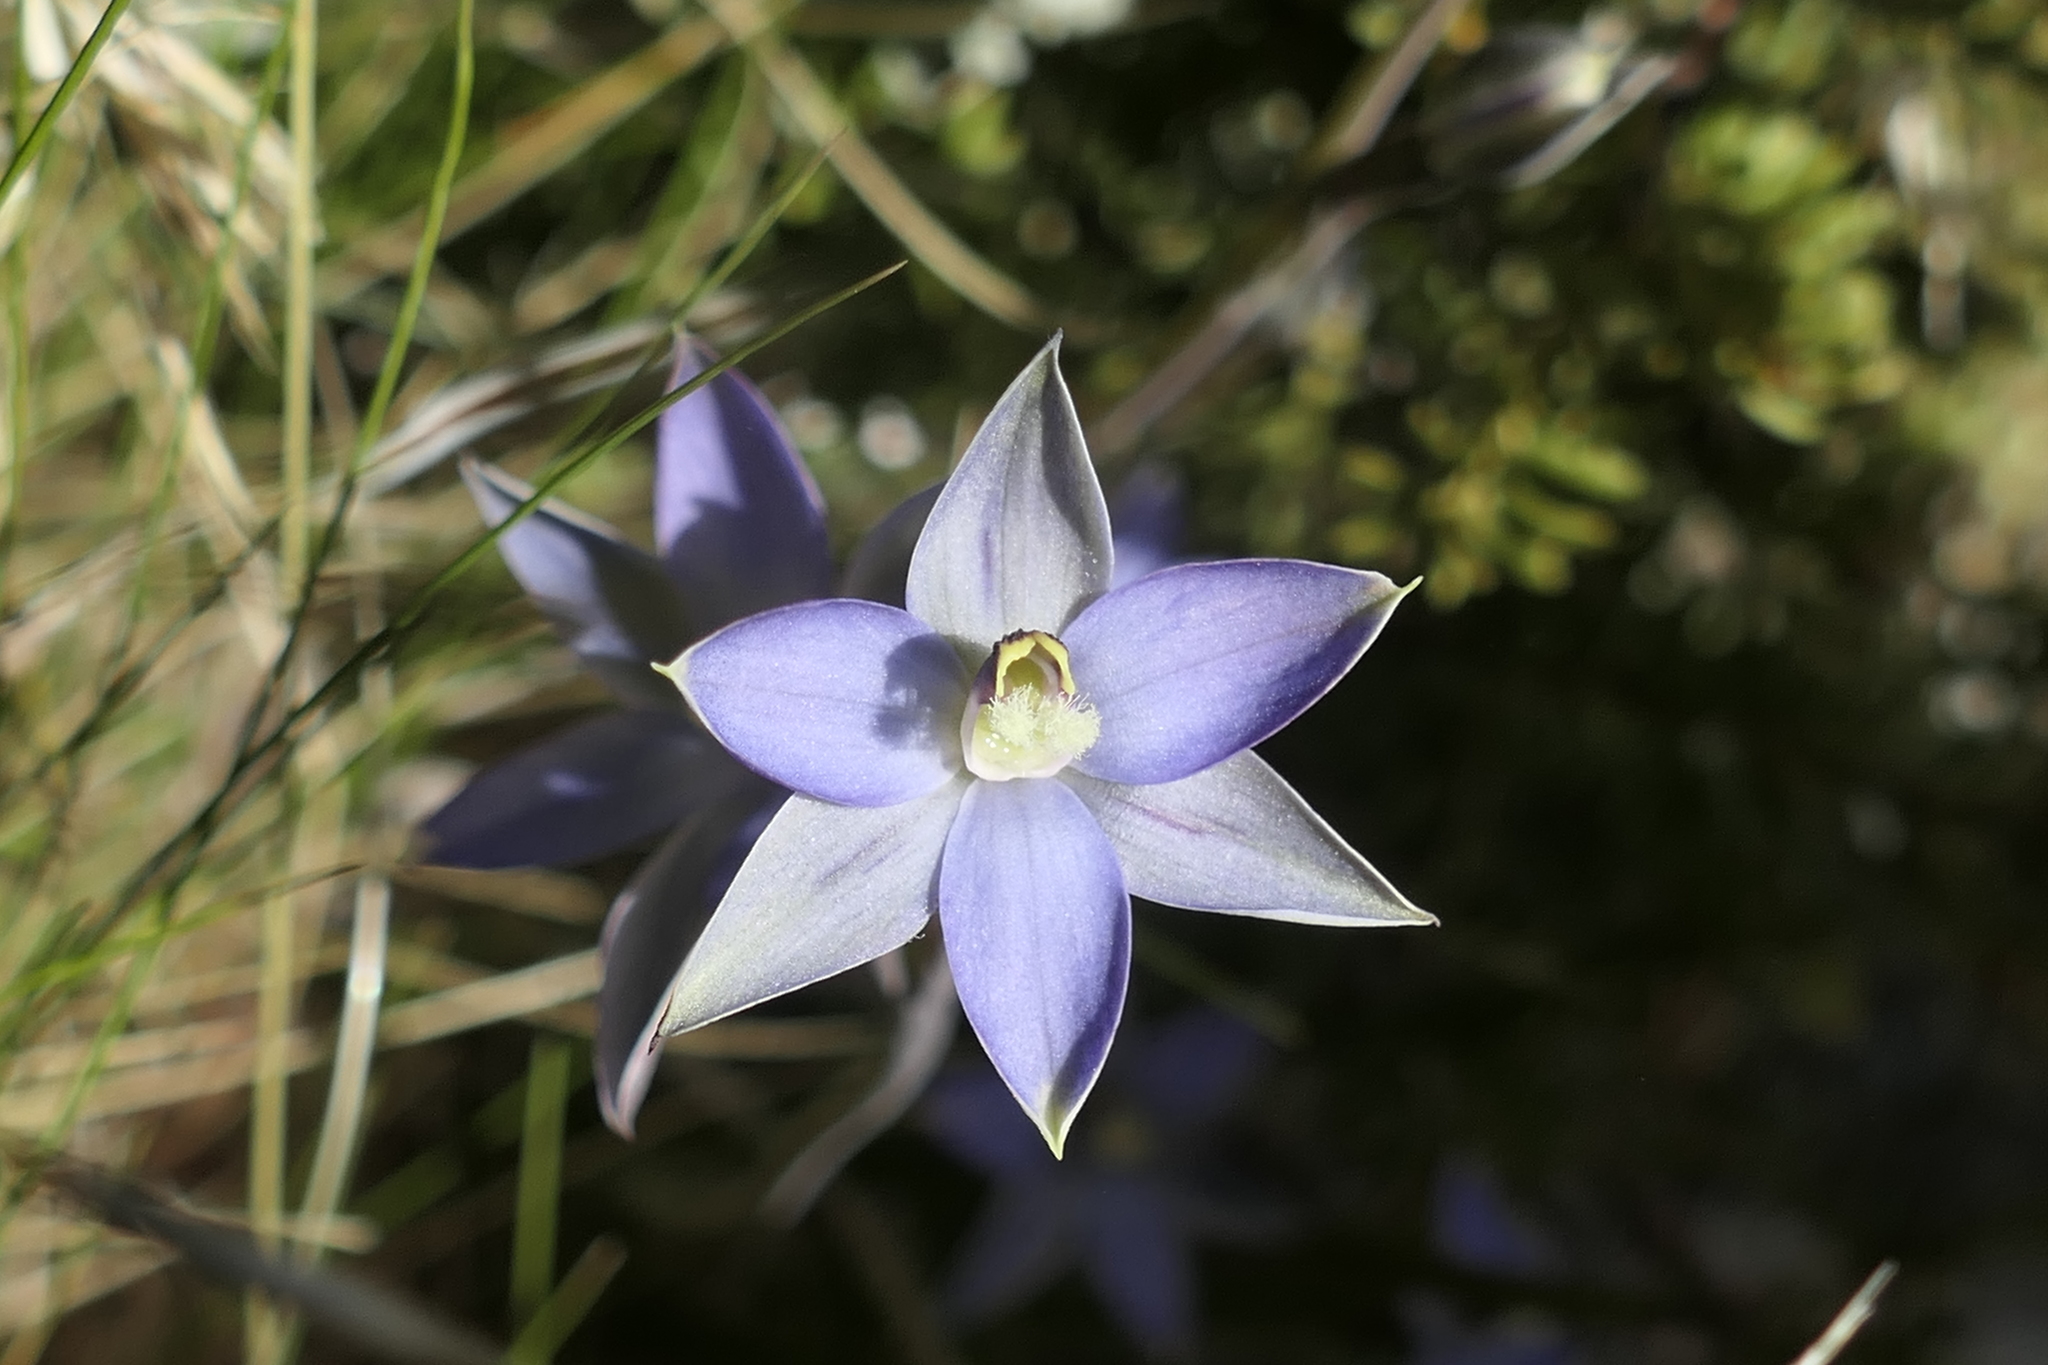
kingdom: Plantae
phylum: Tracheophyta
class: Liliopsida
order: Asparagales
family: Orchidaceae
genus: Thelymitra
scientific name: Thelymitra hatchii
